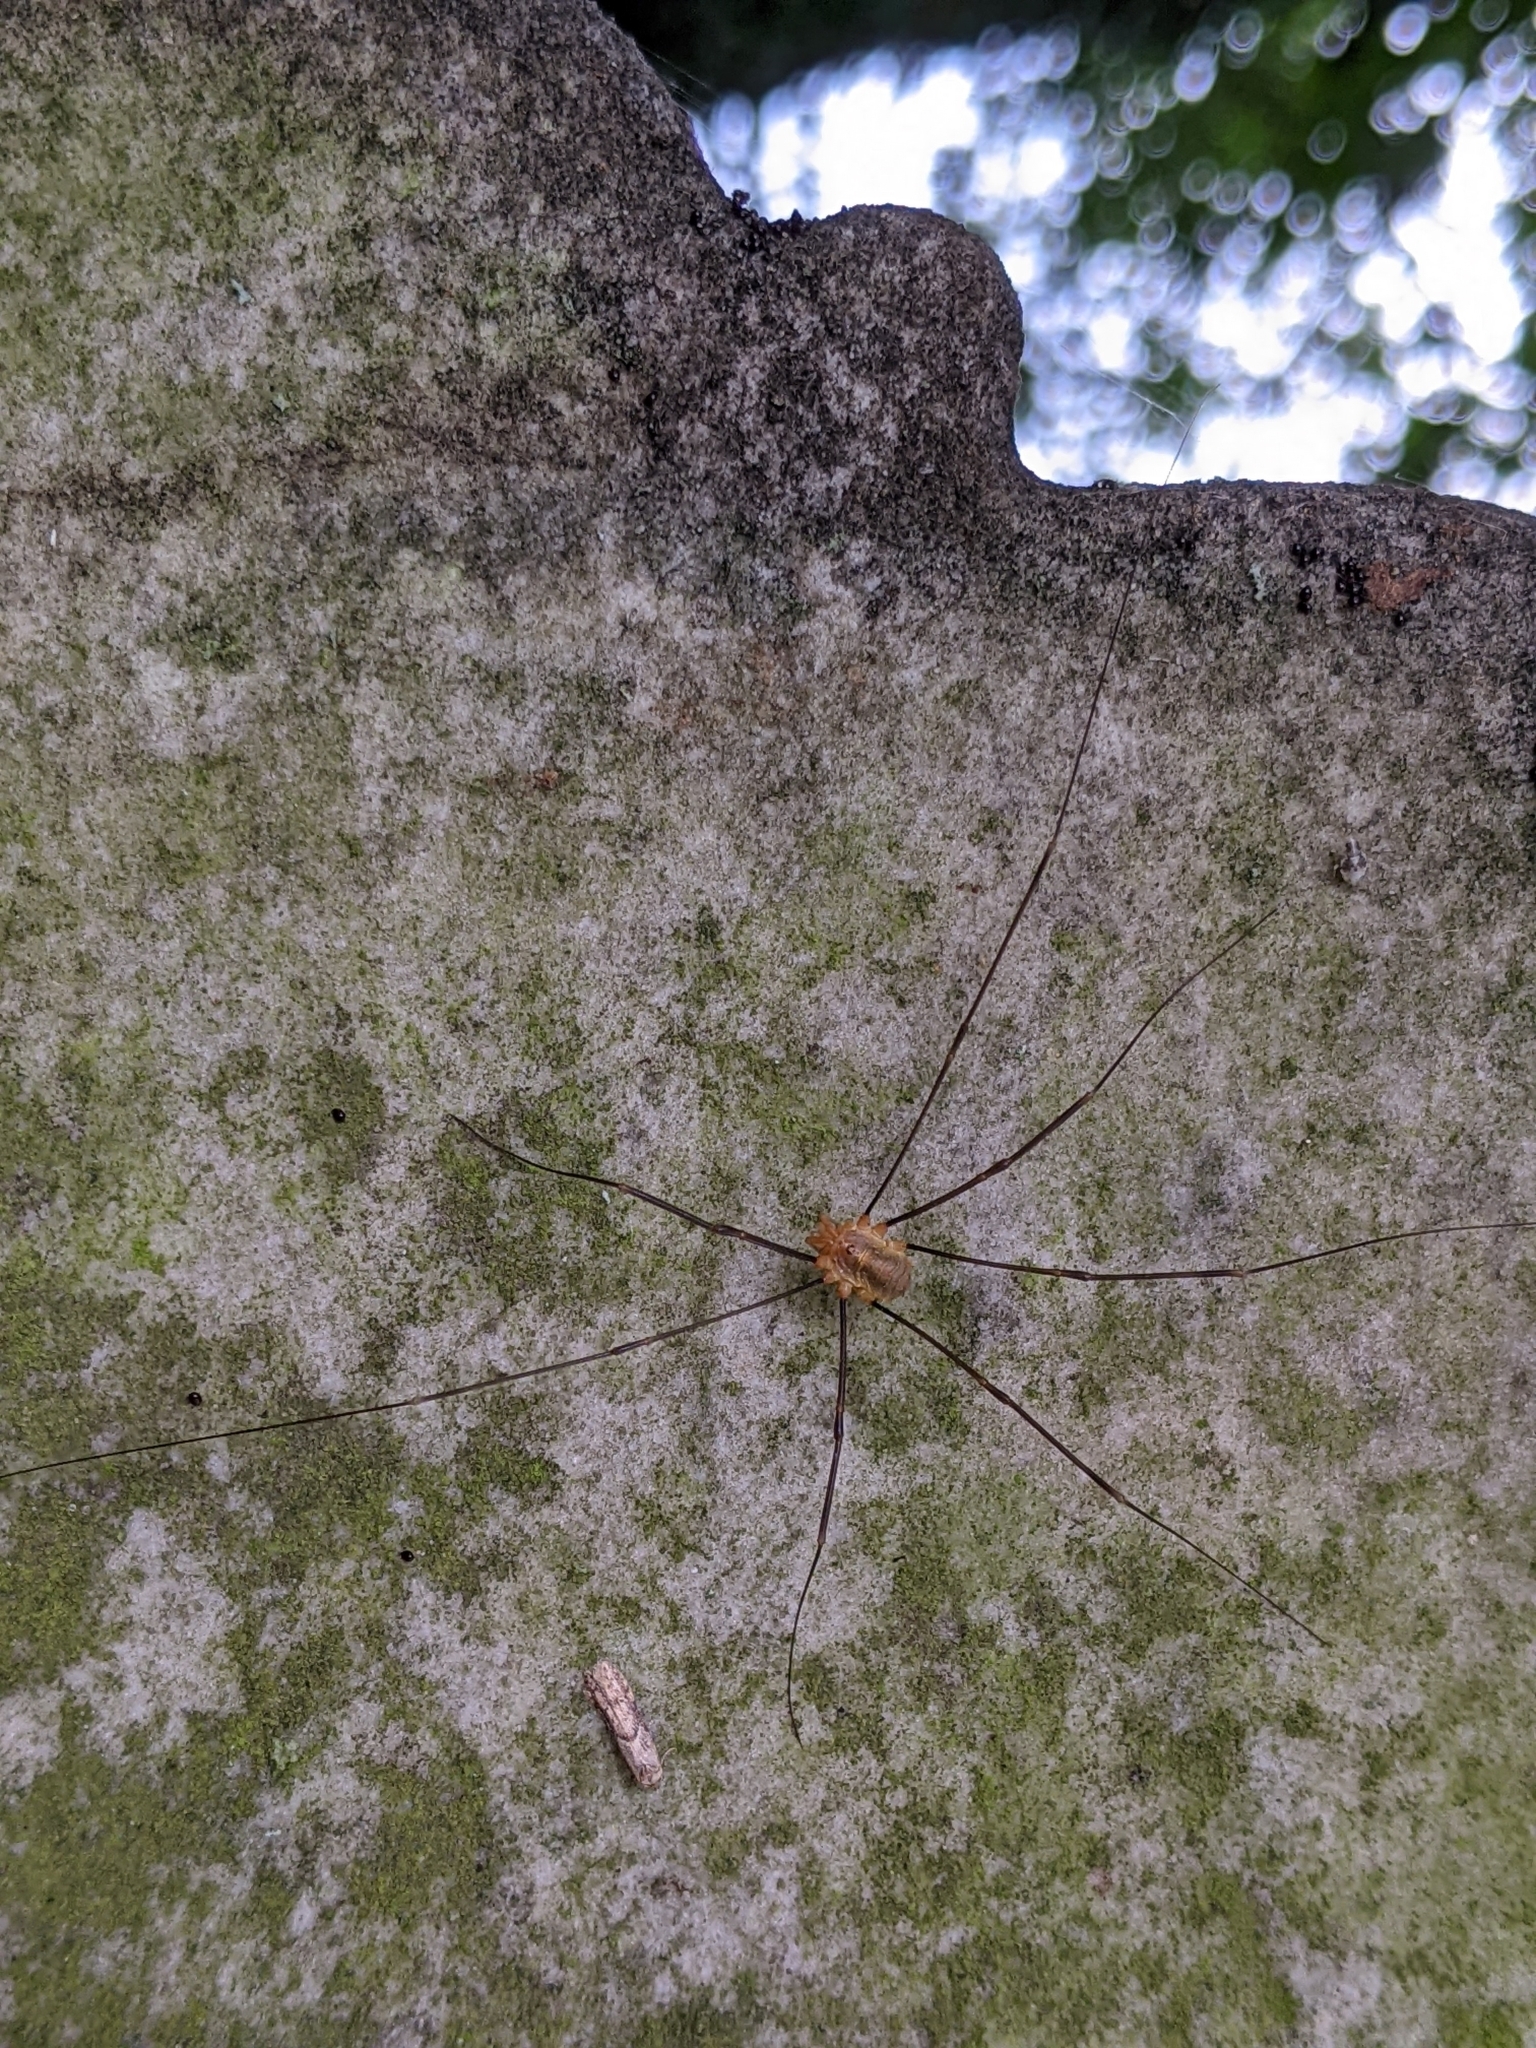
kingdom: Animalia
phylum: Arthropoda
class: Arachnida
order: Opiliones
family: Phalangiidae
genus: Opilio
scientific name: Opilio canestrinii
